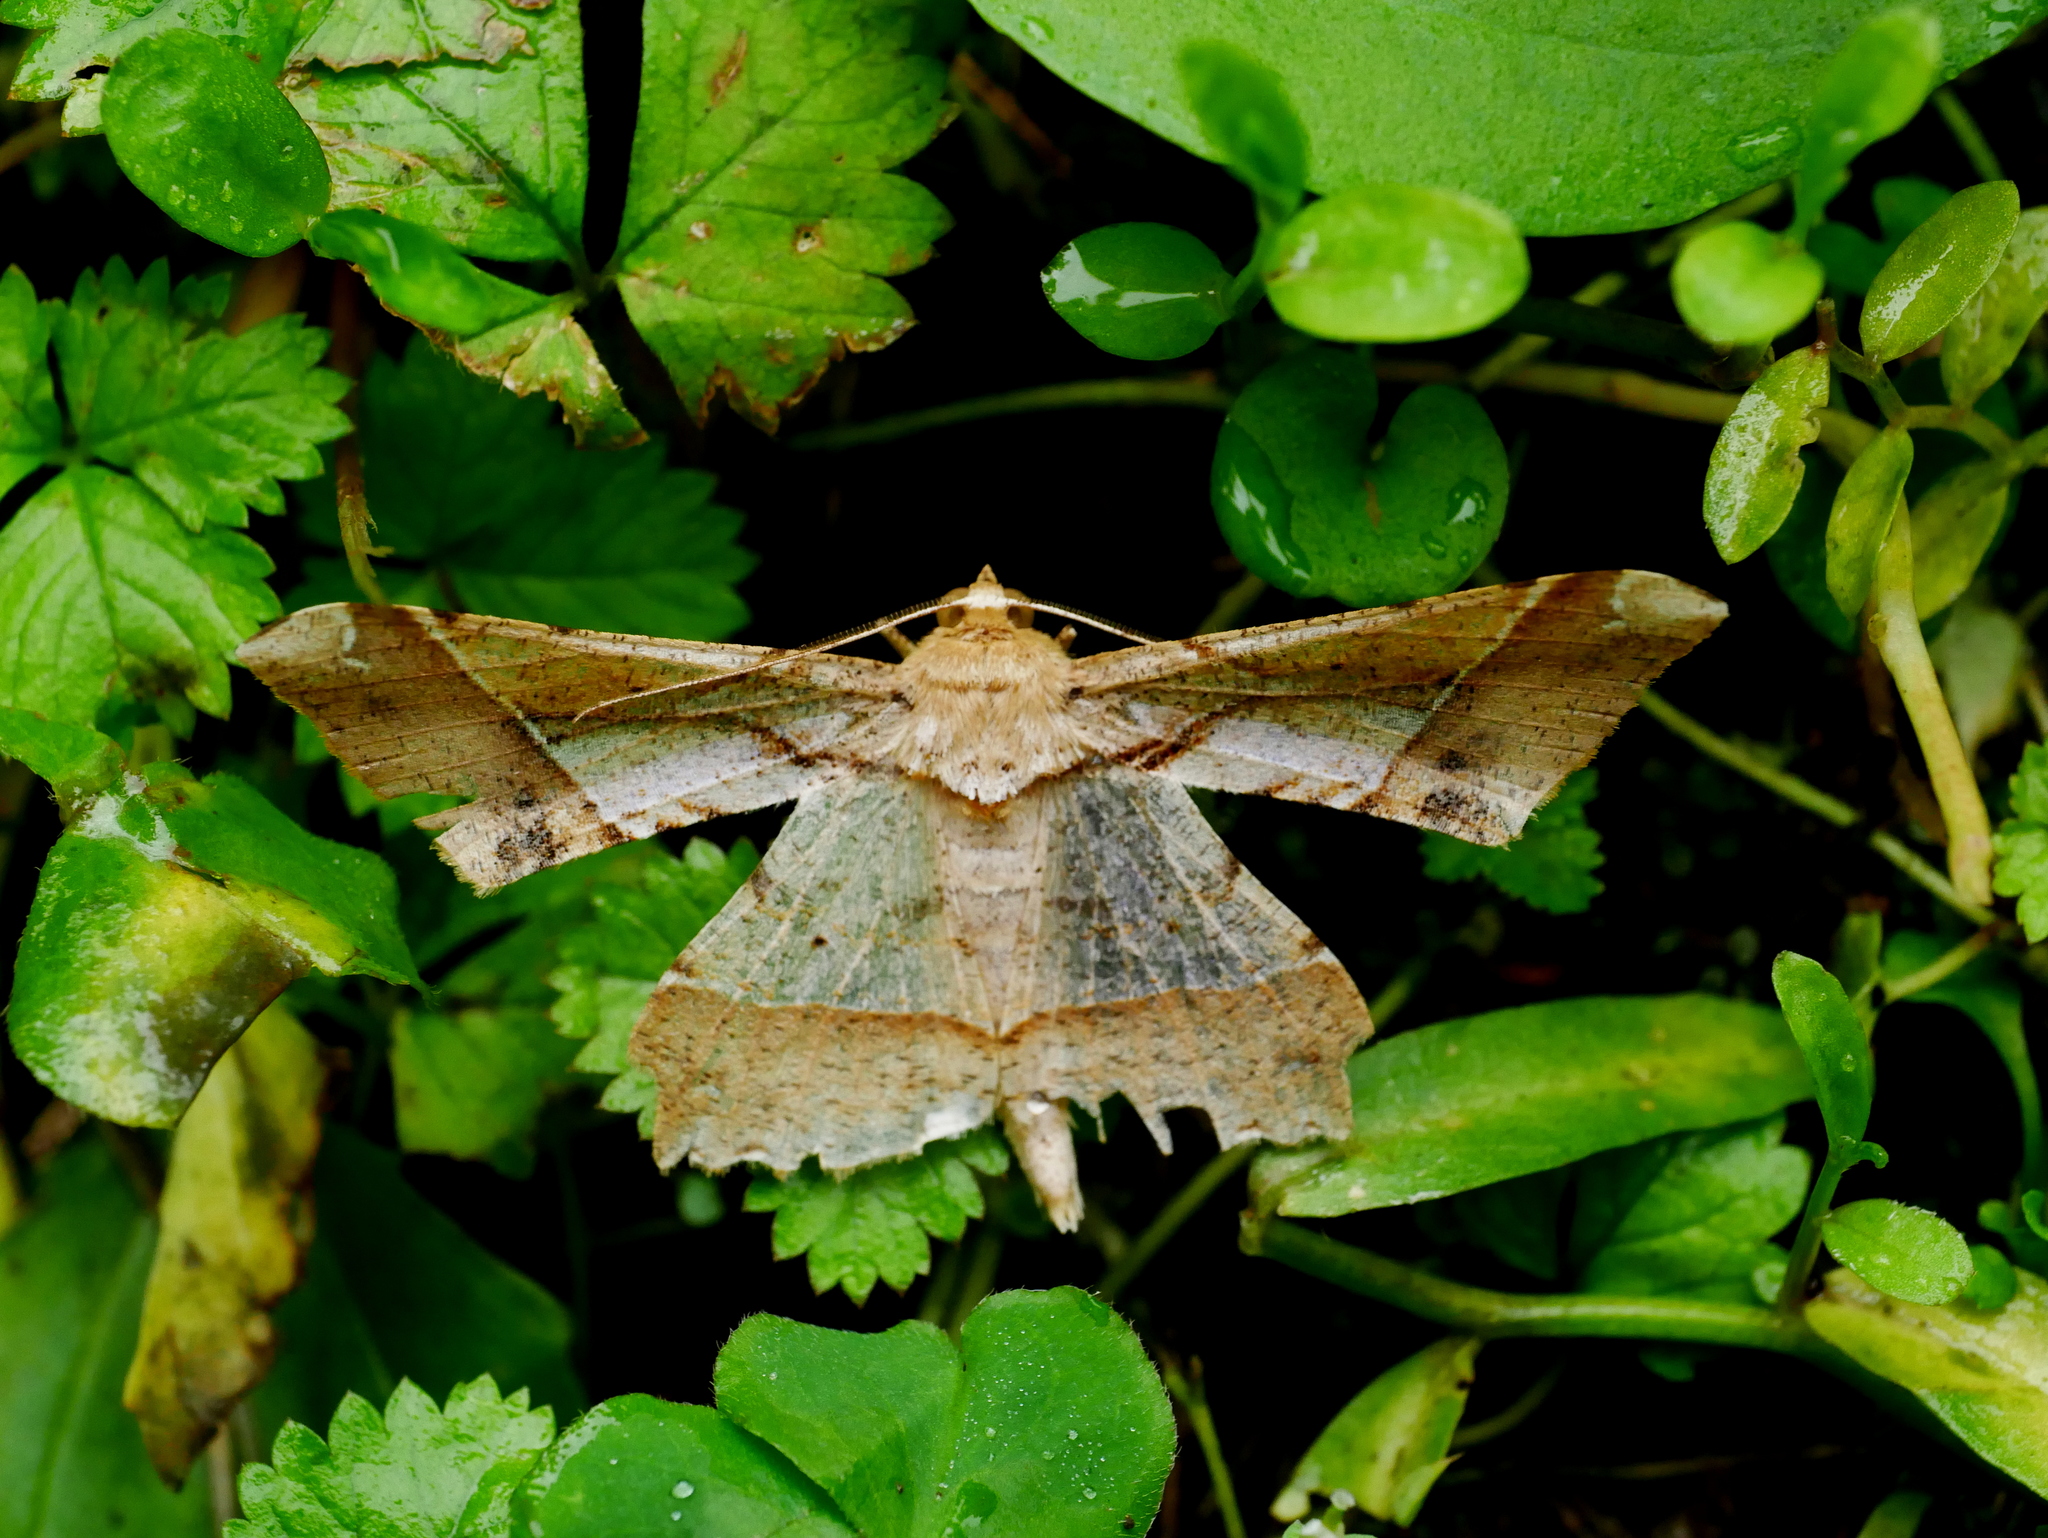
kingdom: Animalia
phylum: Arthropoda
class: Insecta
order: Lepidoptera
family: Geometridae
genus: Krananda
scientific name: Krananda latimarginaria
